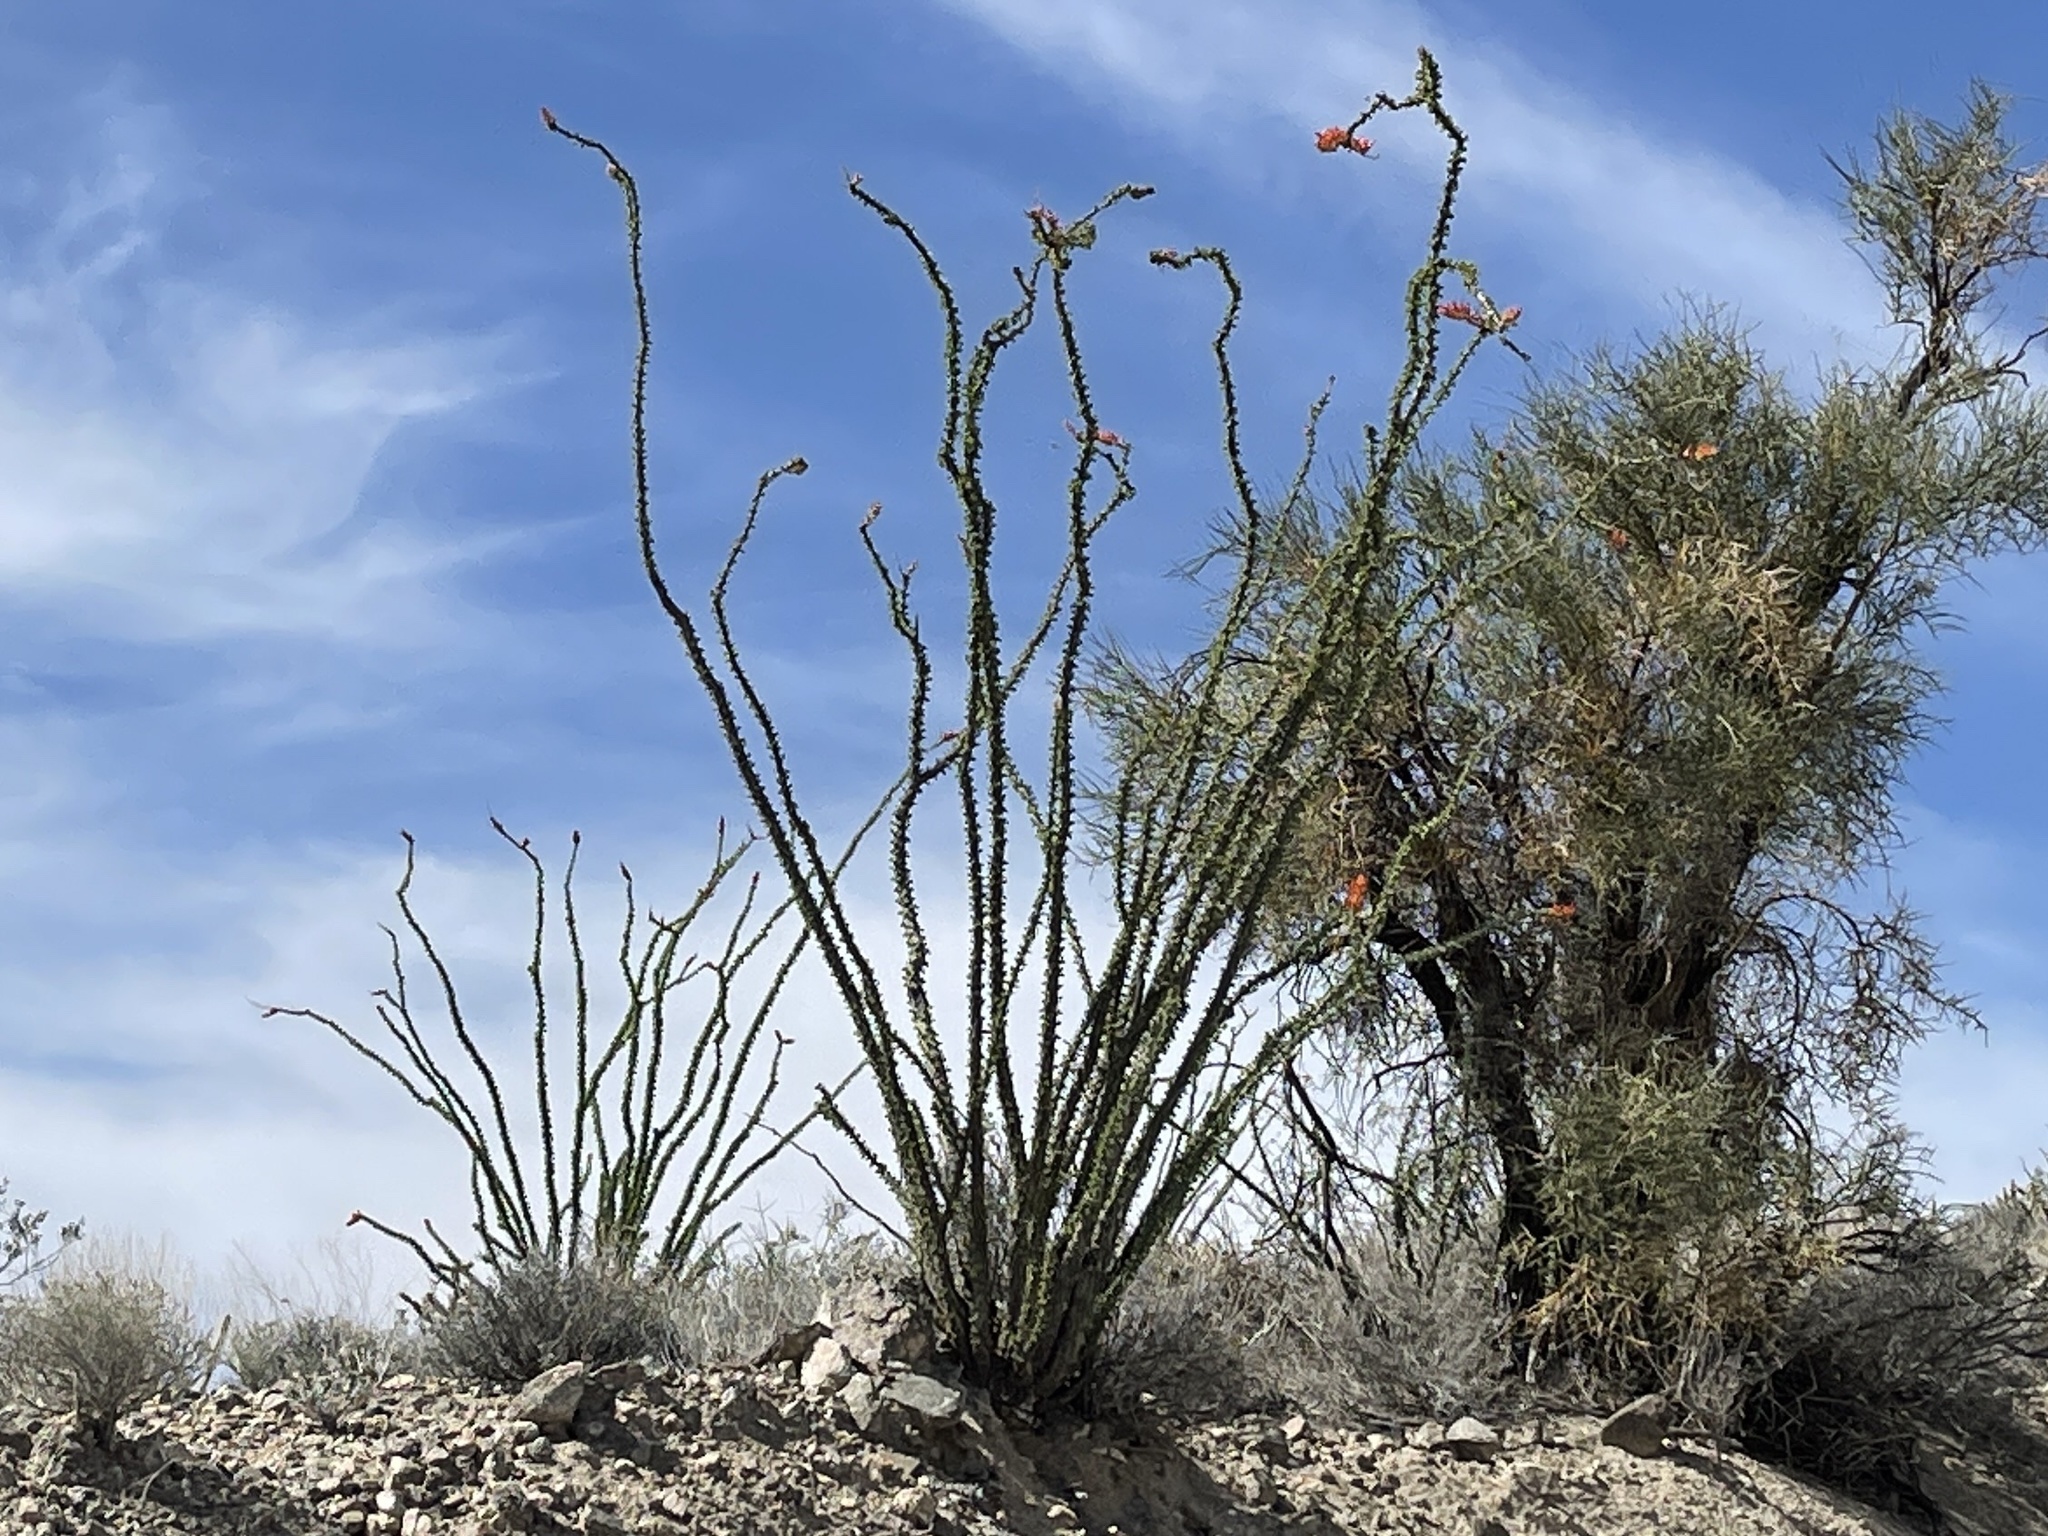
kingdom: Plantae
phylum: Tracheophyta
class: Magnoliopsida
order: Ericales
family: Fouquieriaceae
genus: Fouquieria
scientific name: Fouquieria splendens
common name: Vine-cactus
